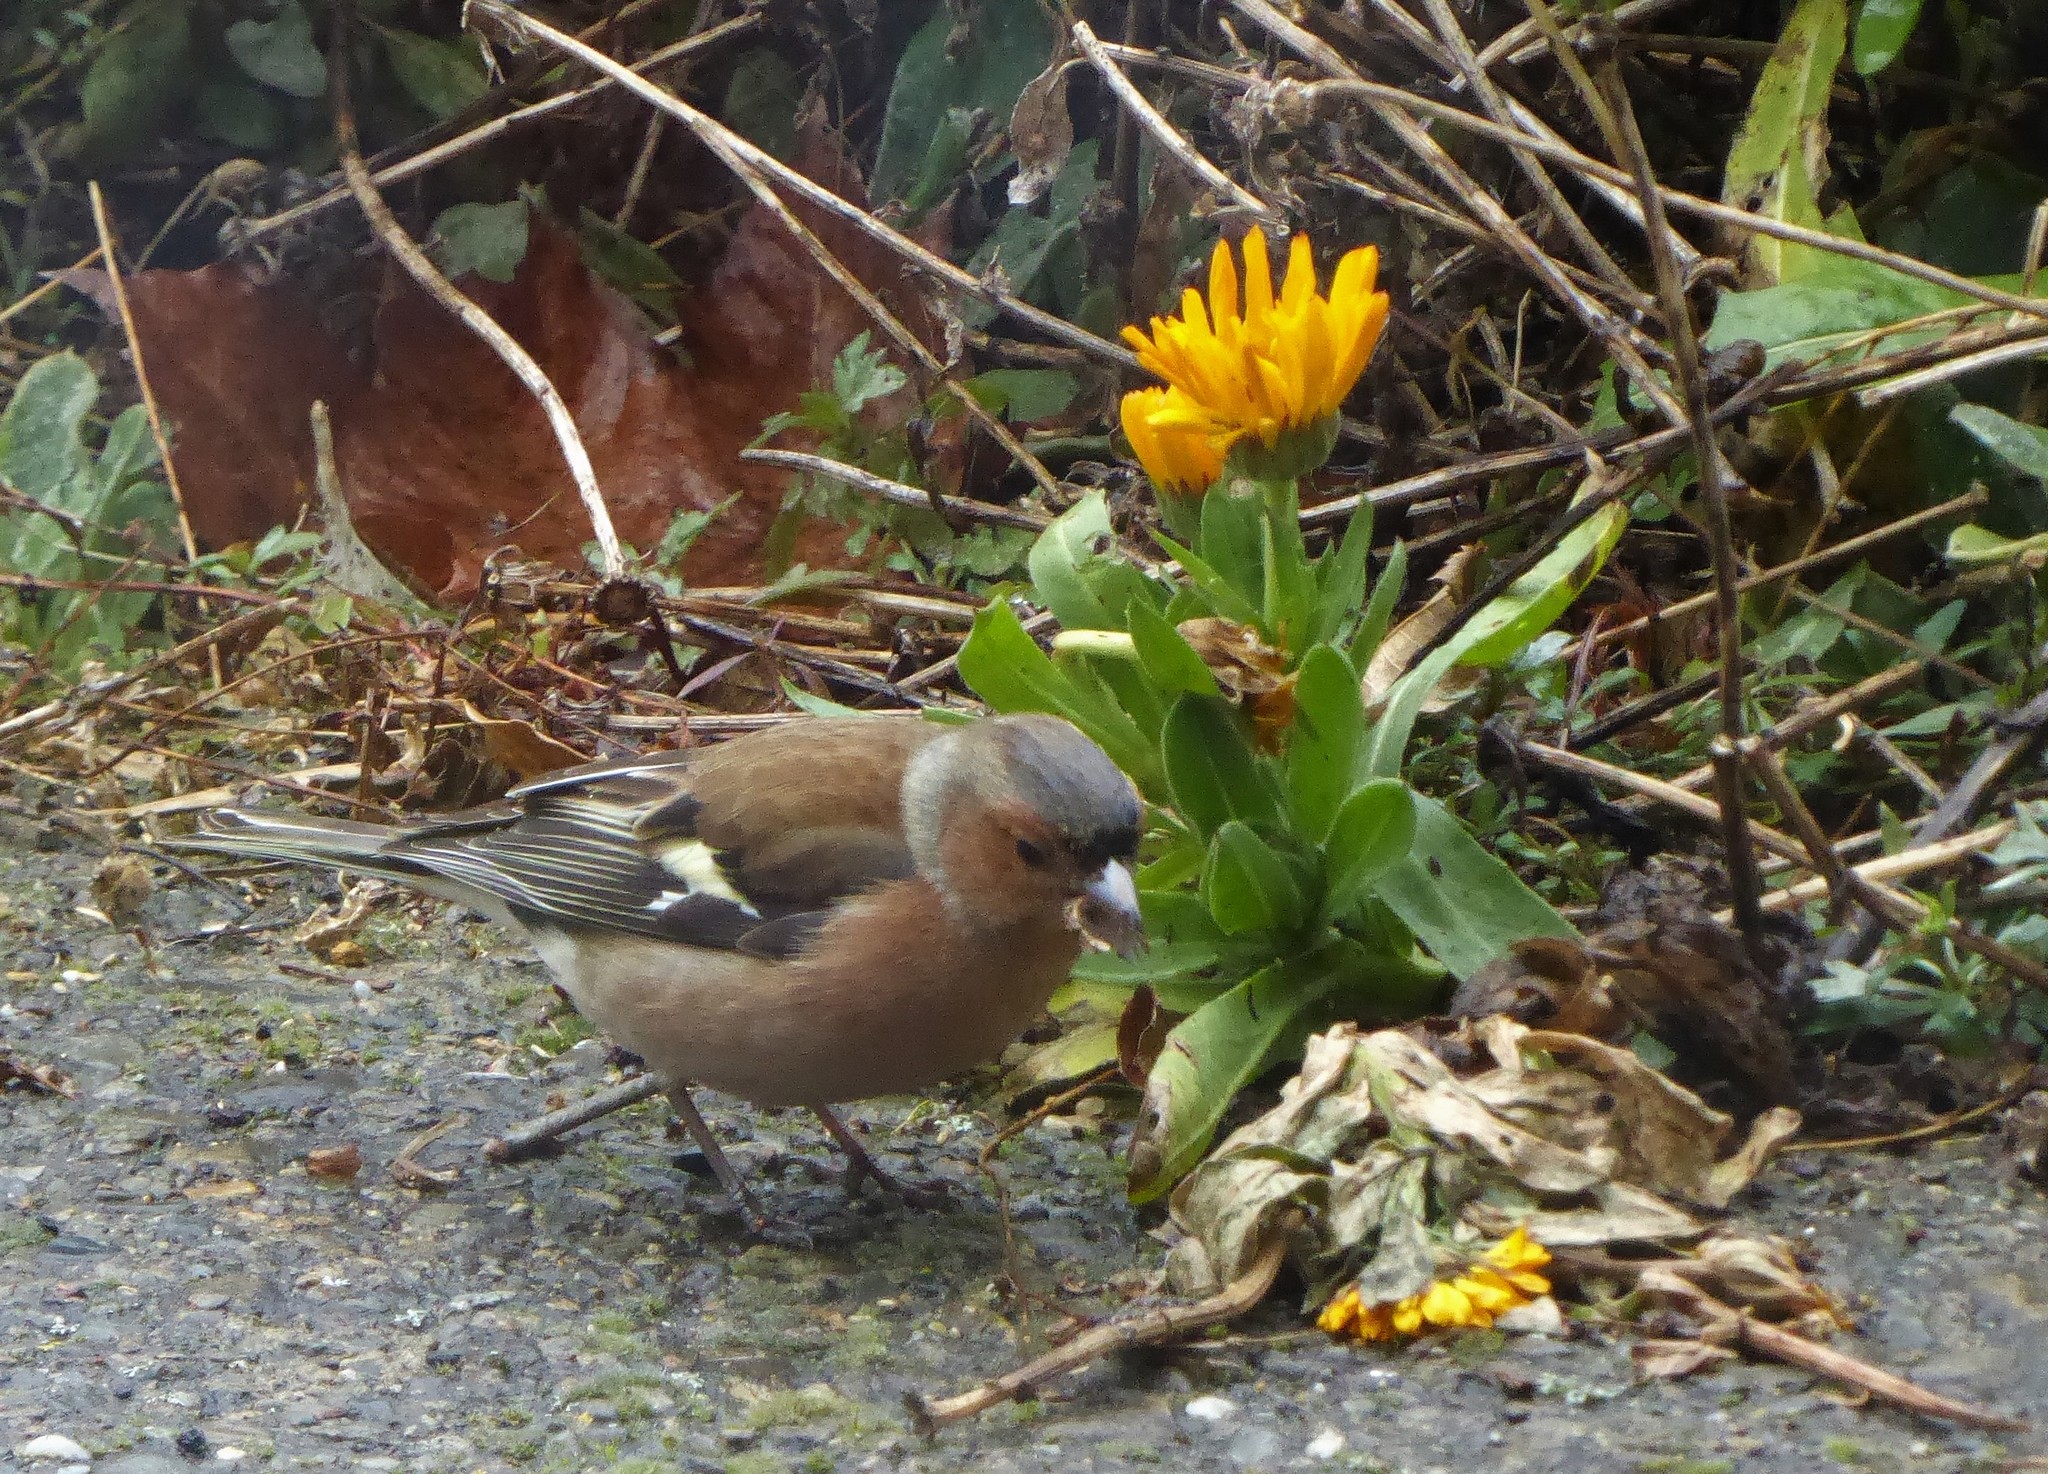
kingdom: Animalia
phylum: Chordata
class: Aves
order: Passeriformes
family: Fringillidae
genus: Fringilla
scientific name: Fringilla coelebs
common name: Common chaffinch
